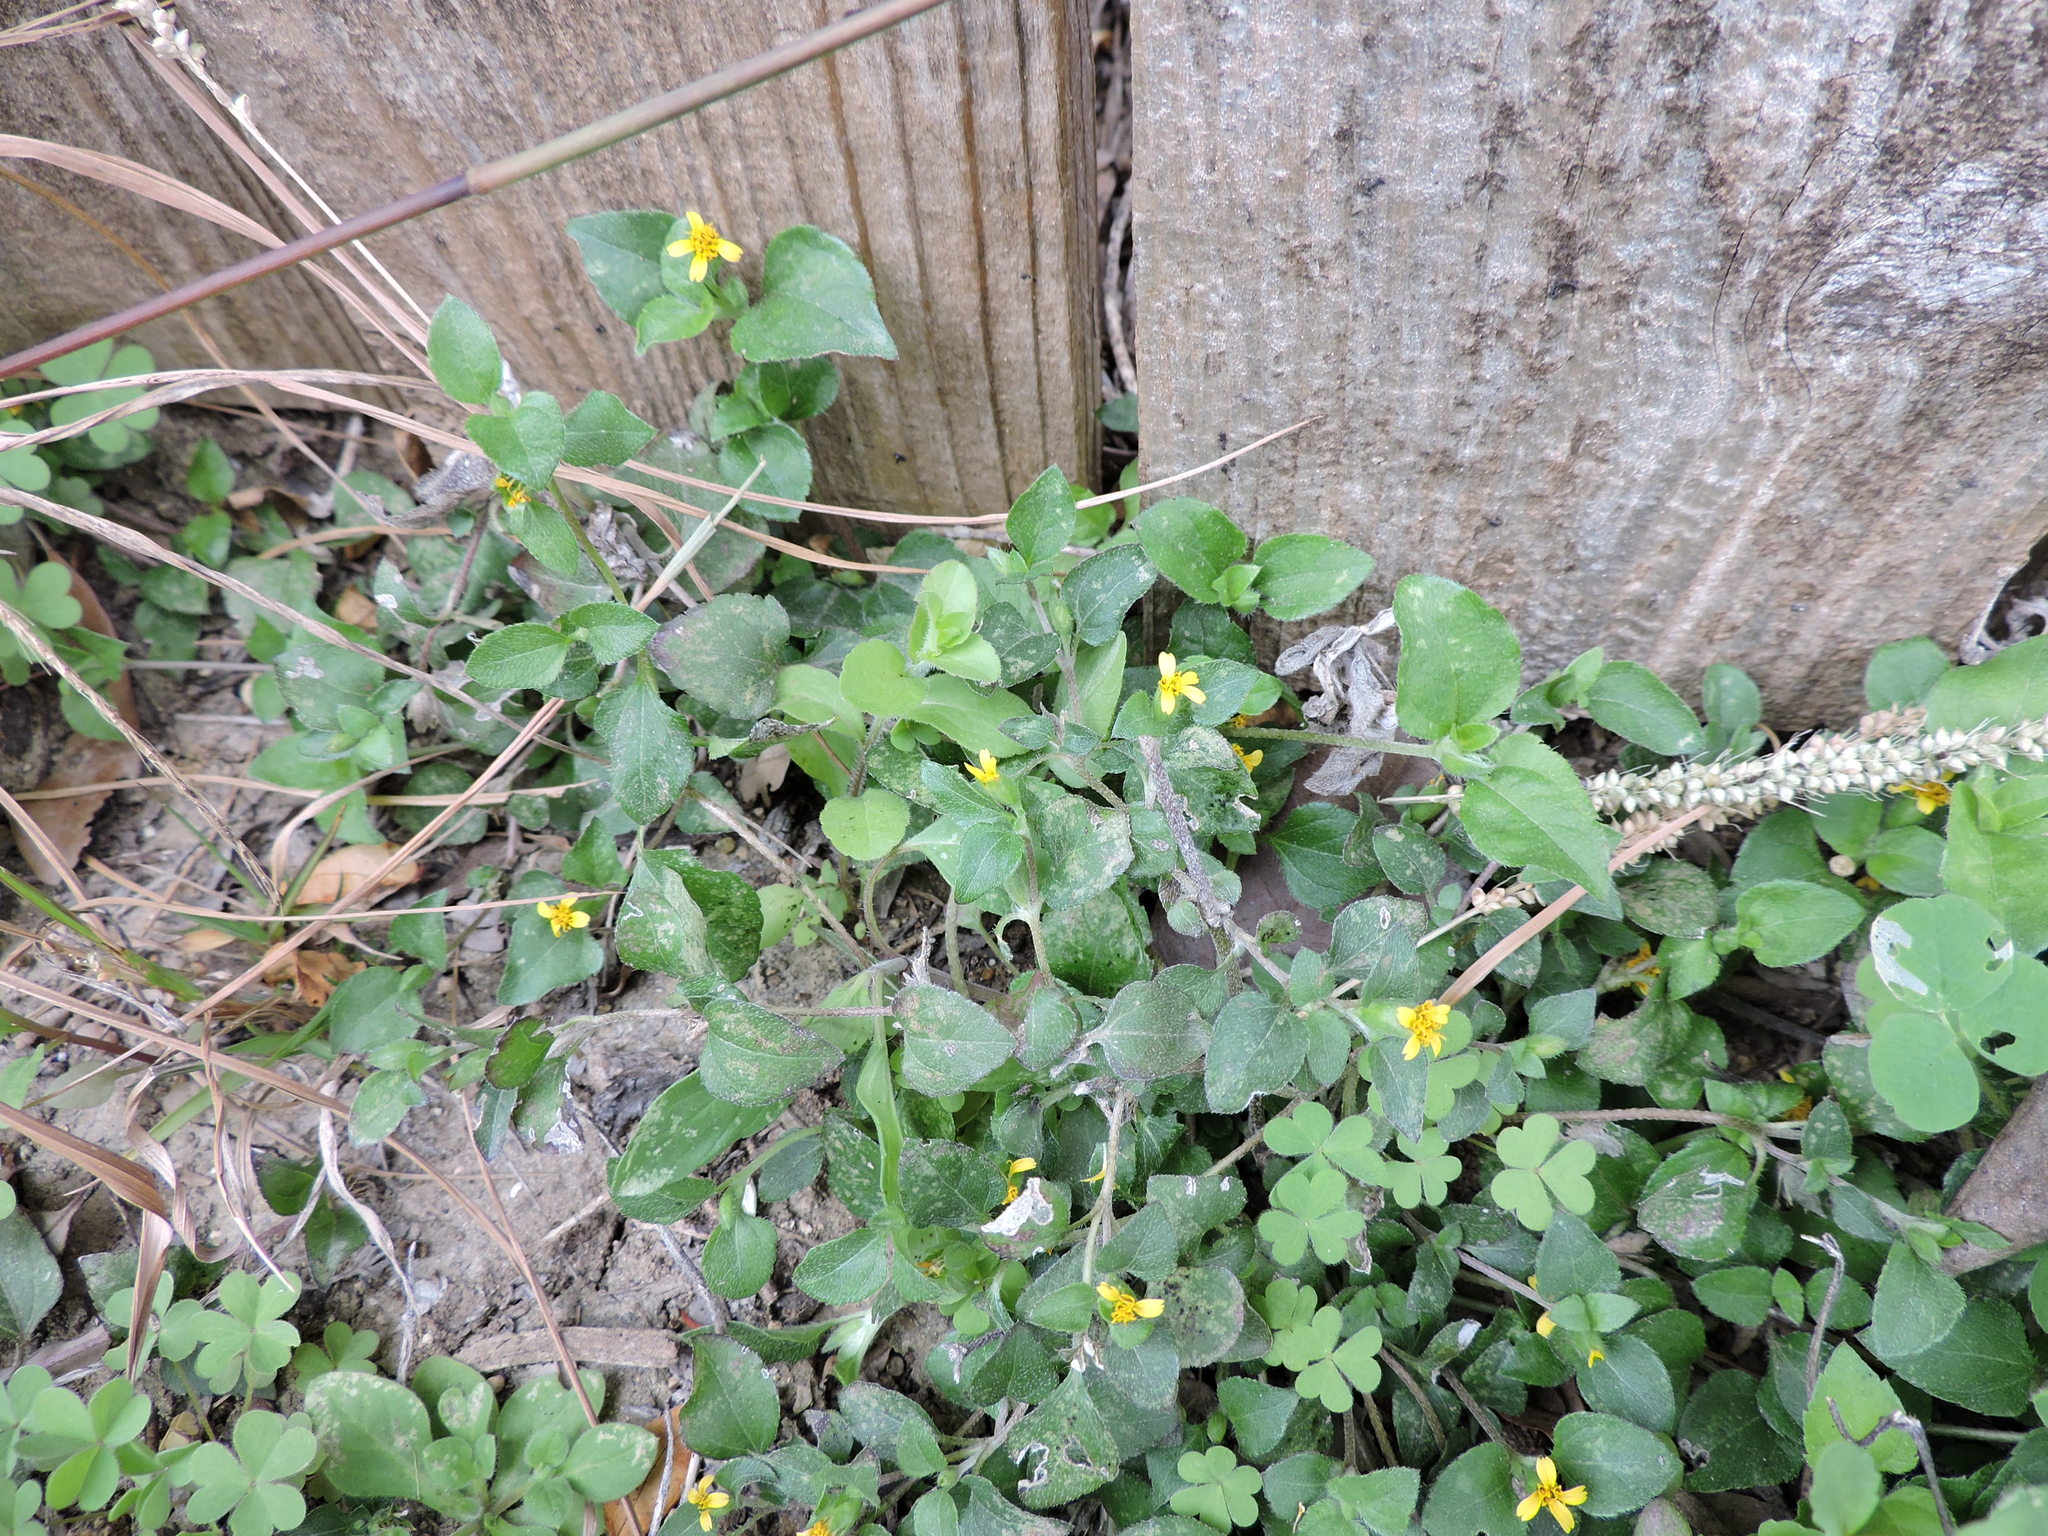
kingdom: Plantae
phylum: Tracheophyta
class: Magnoliopsida
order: Asterales
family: Asteraceae
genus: Calyptocarpus
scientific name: Calyptocarpus vialis
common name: Straggler daisy
